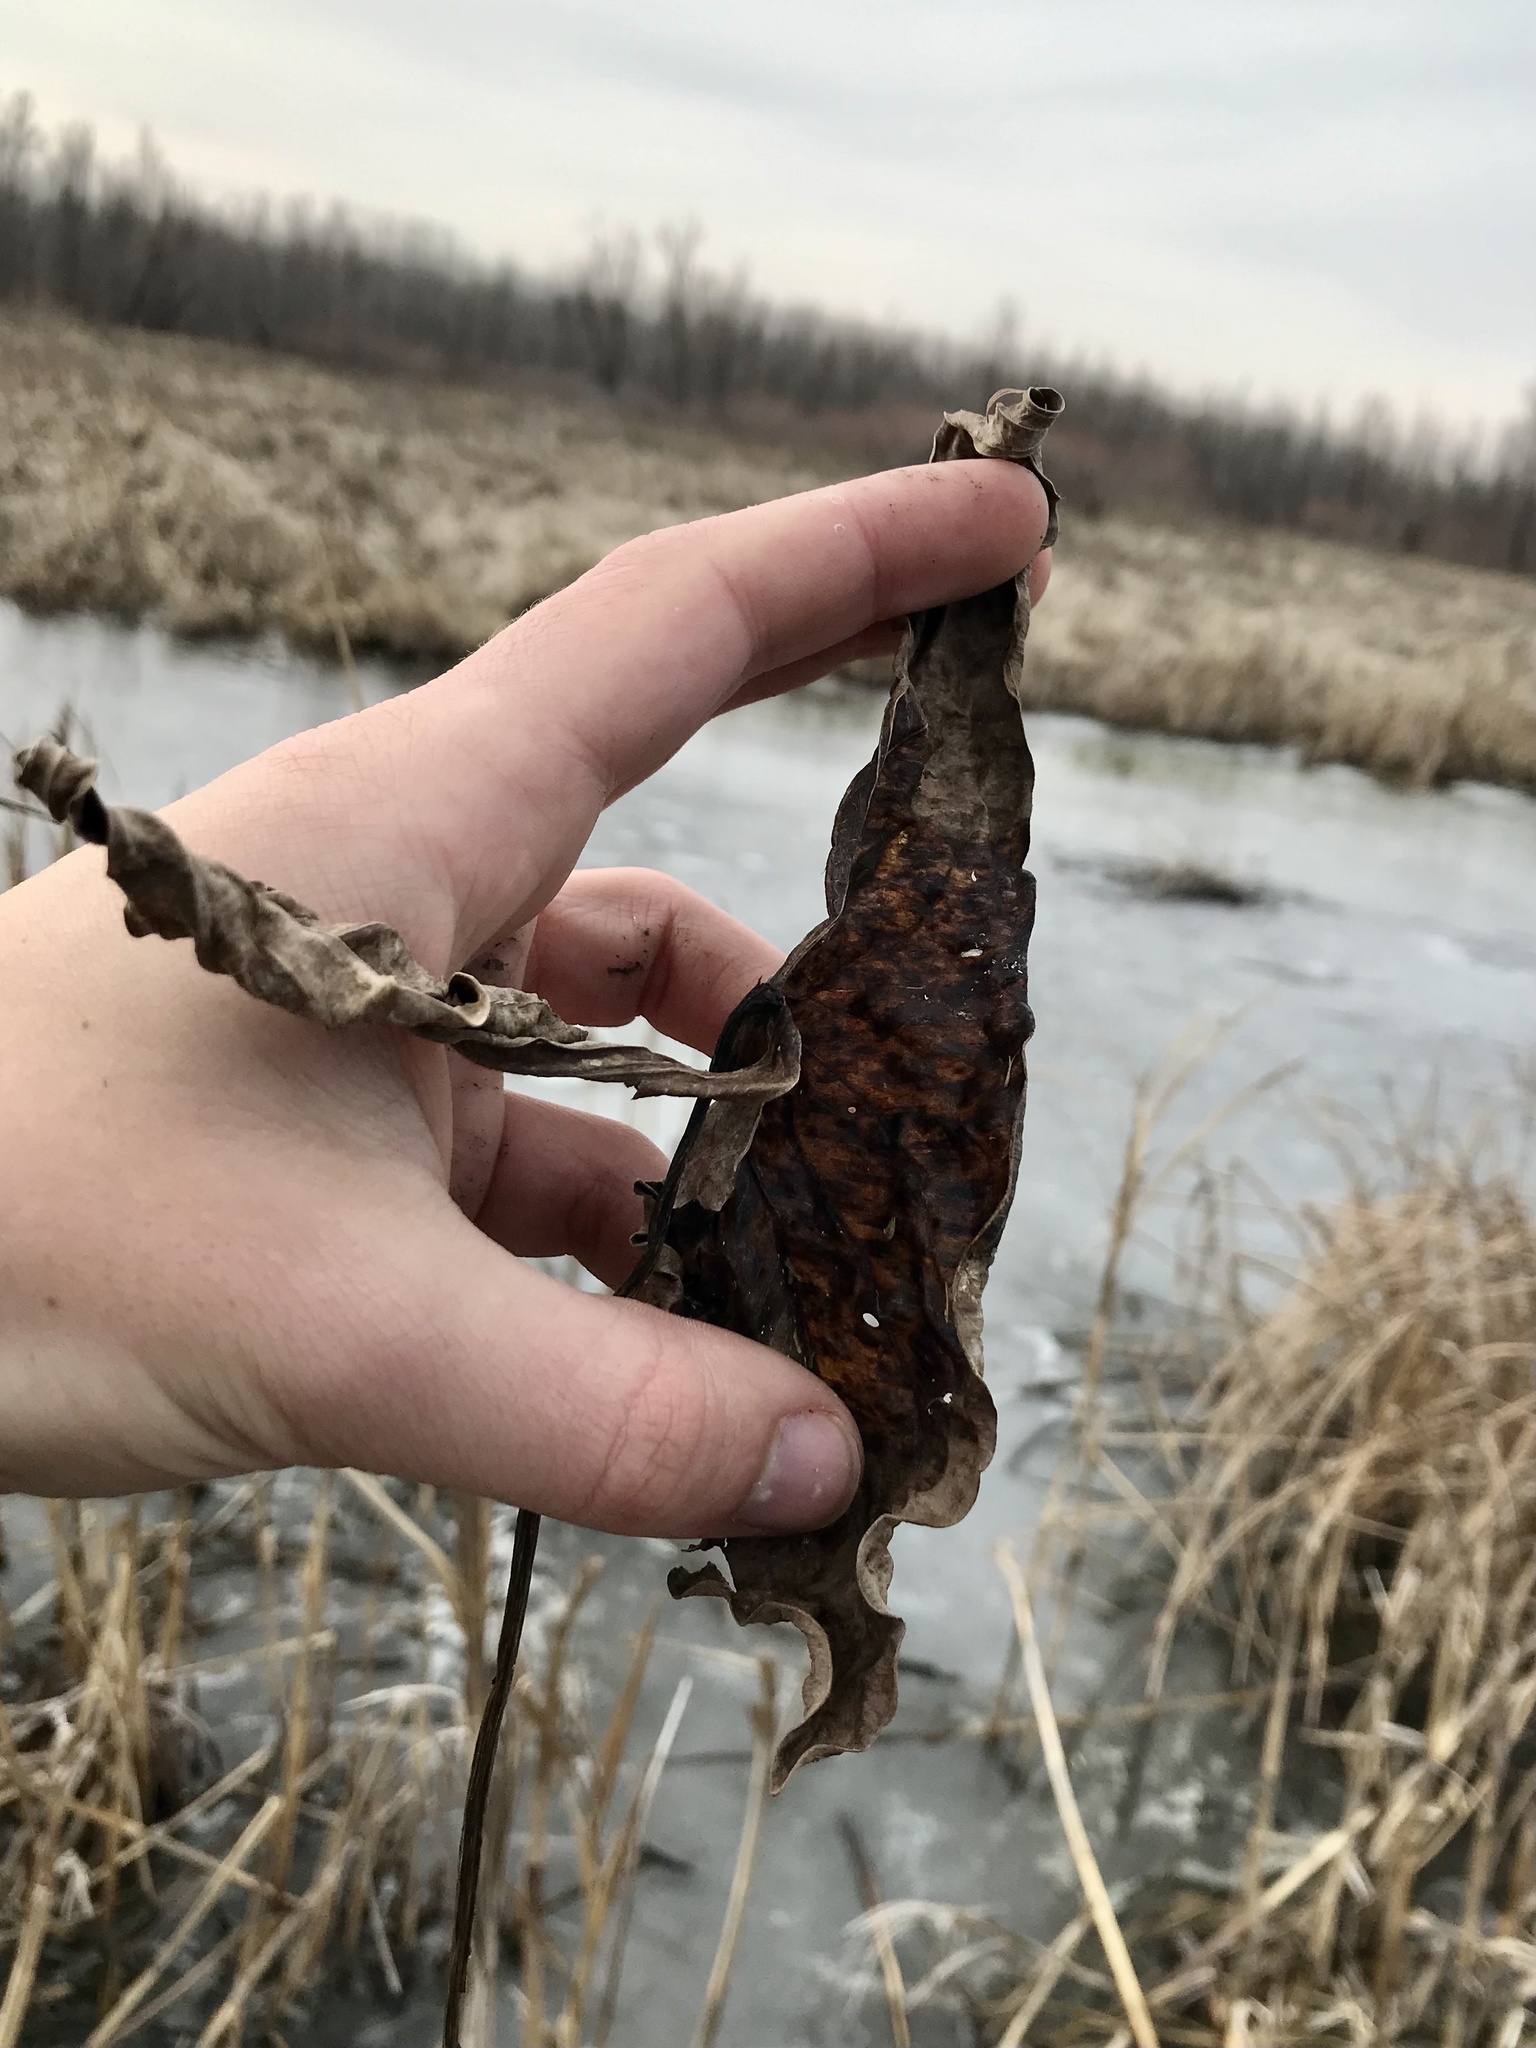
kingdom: Plantae
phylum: Tracheophyta
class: Liliopsida
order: Alismatales
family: Alismataceae
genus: Sagittaria
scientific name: Sagittaria
